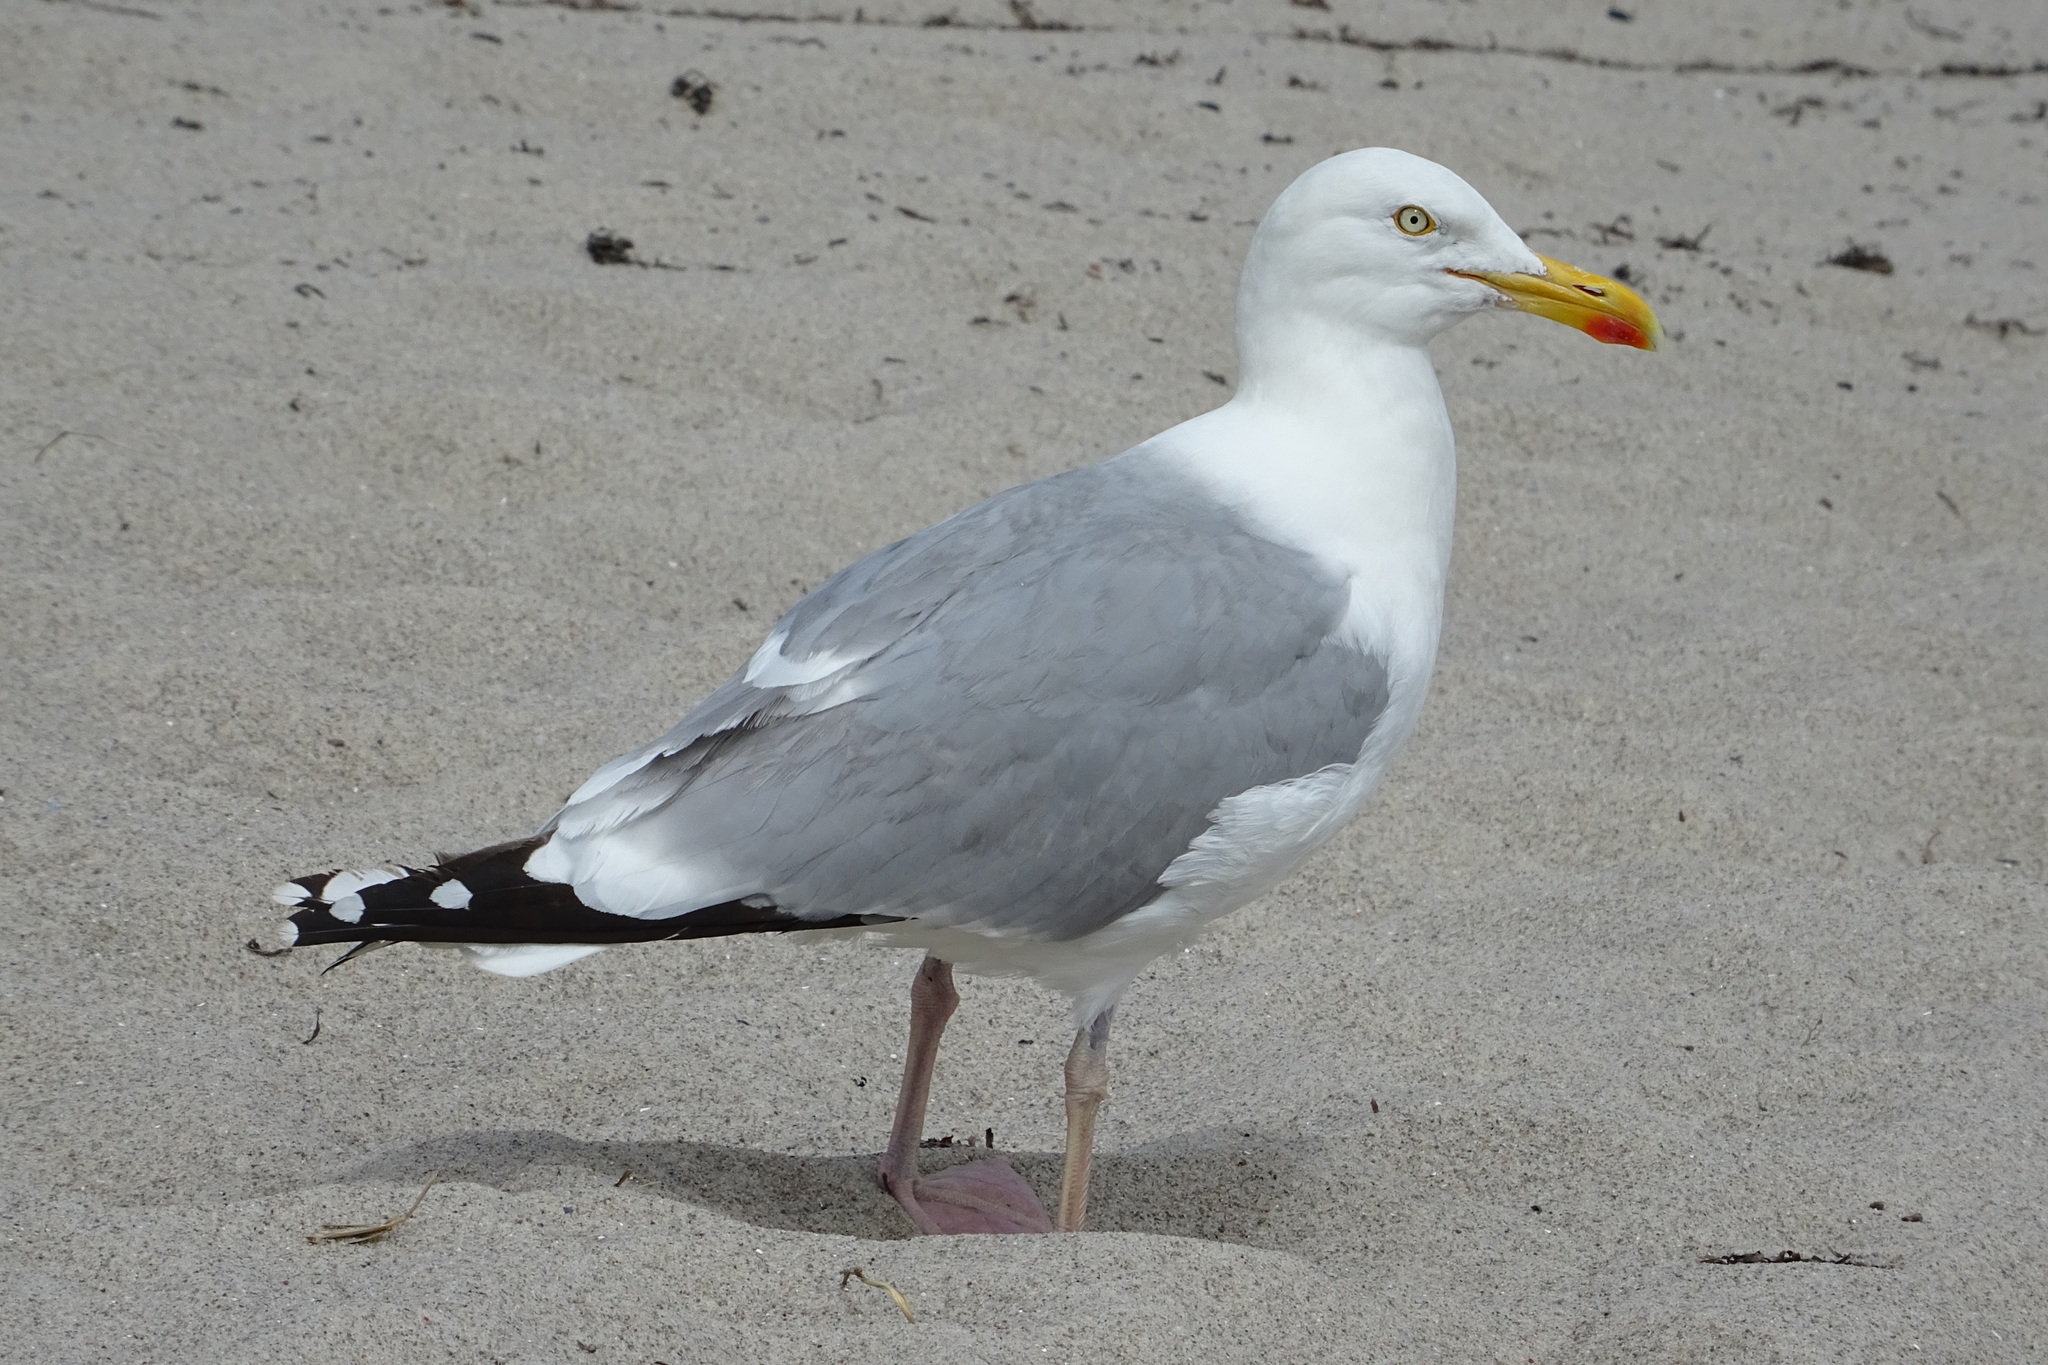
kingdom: Animalia
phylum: Chordata
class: Aves
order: Charadriiformes
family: Laridae
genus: Larus
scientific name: Larus argentatus
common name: Herring gull
